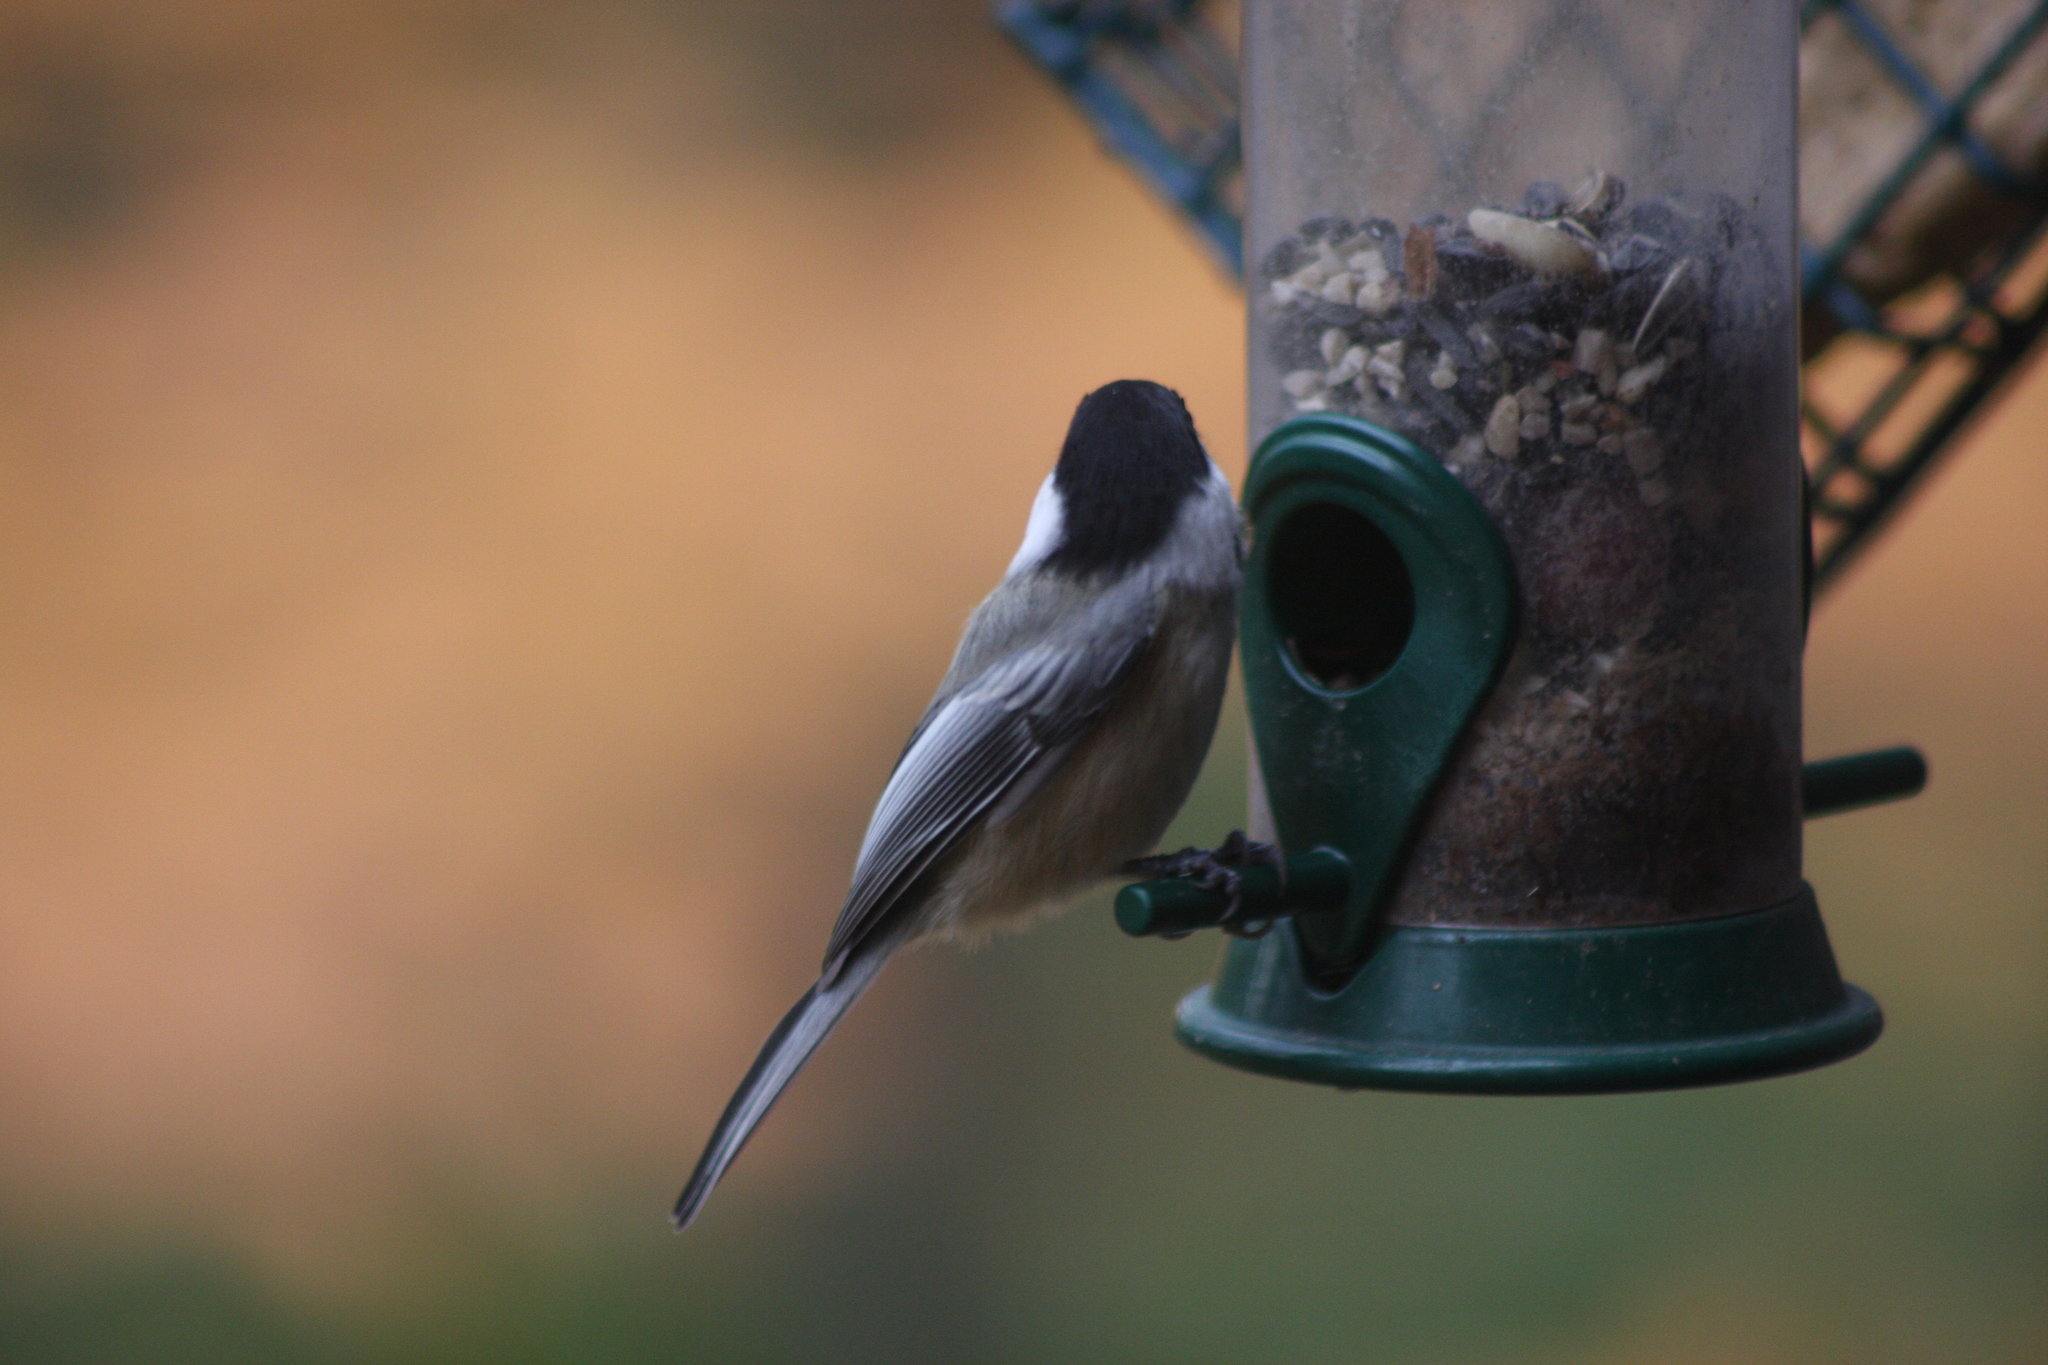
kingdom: Animalia
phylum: Chordata
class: Aves
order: Passeriformes
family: Paridae
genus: Poecile
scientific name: Poecile atricapillus
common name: Black-capped chickadee
